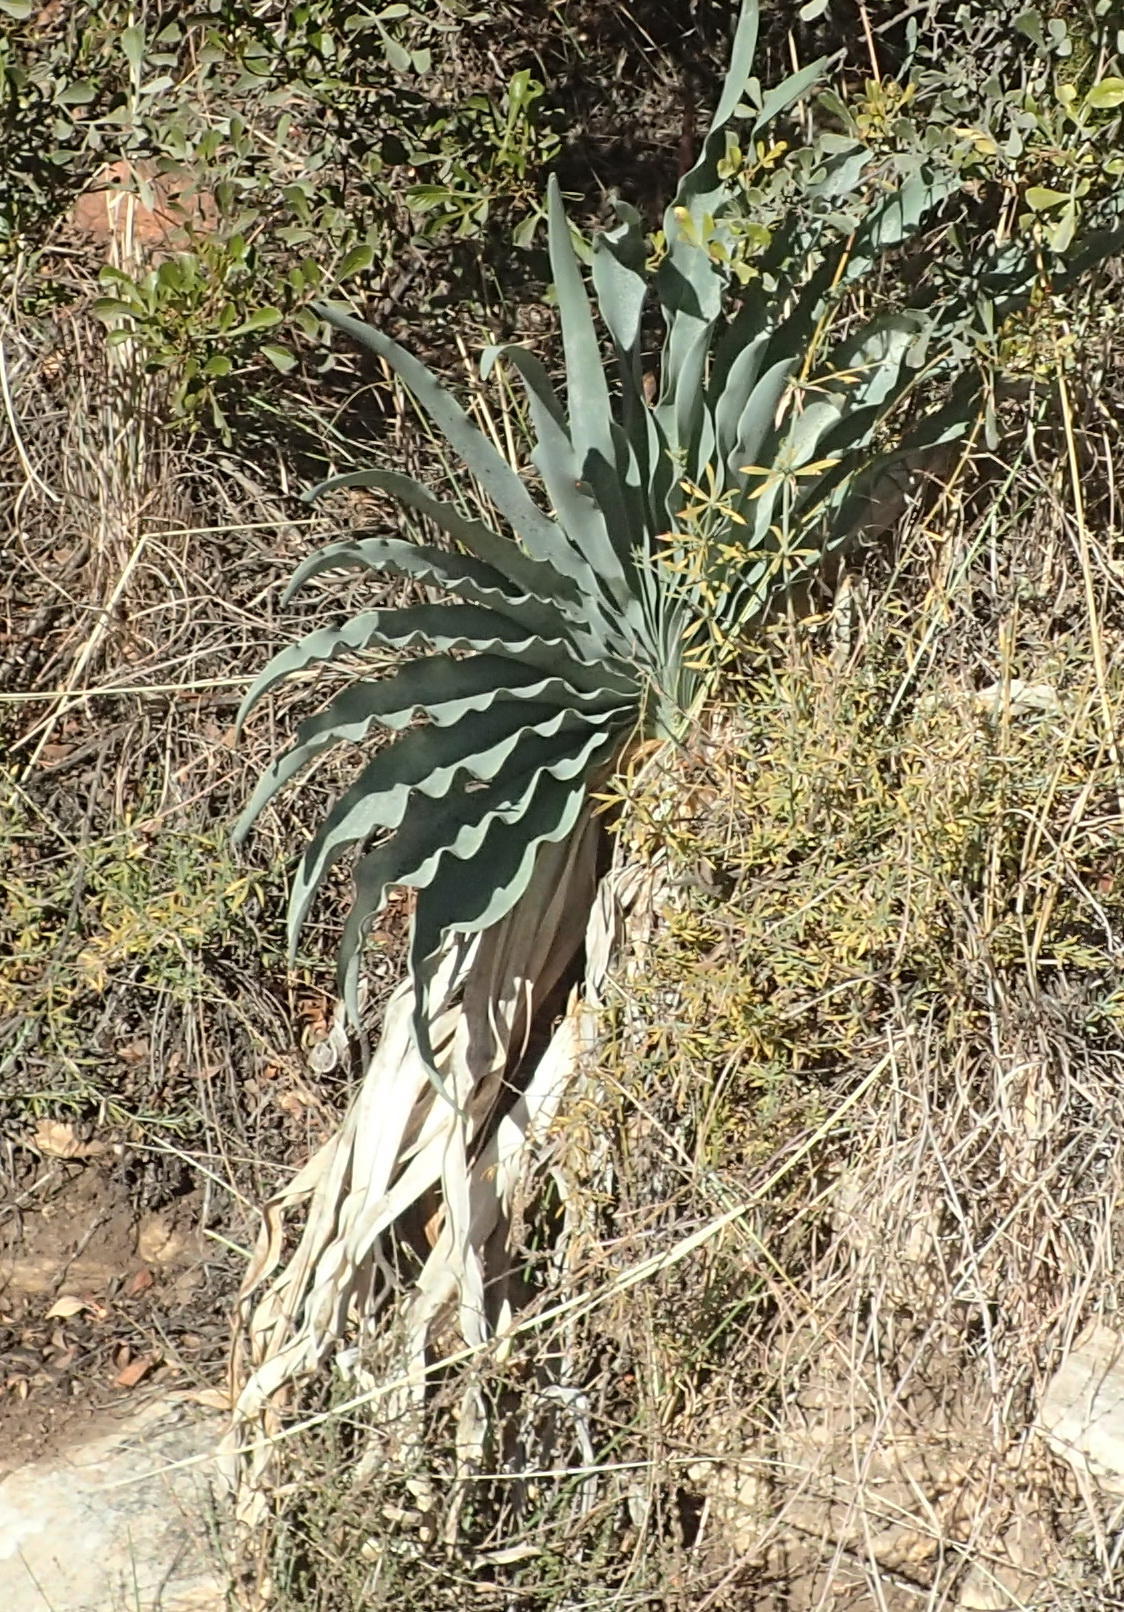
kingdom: Plantae
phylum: Tracheophyta
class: Liliopsida
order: Asparagales
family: Amaryllidaceae
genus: Boophone
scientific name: Boophone disticha
